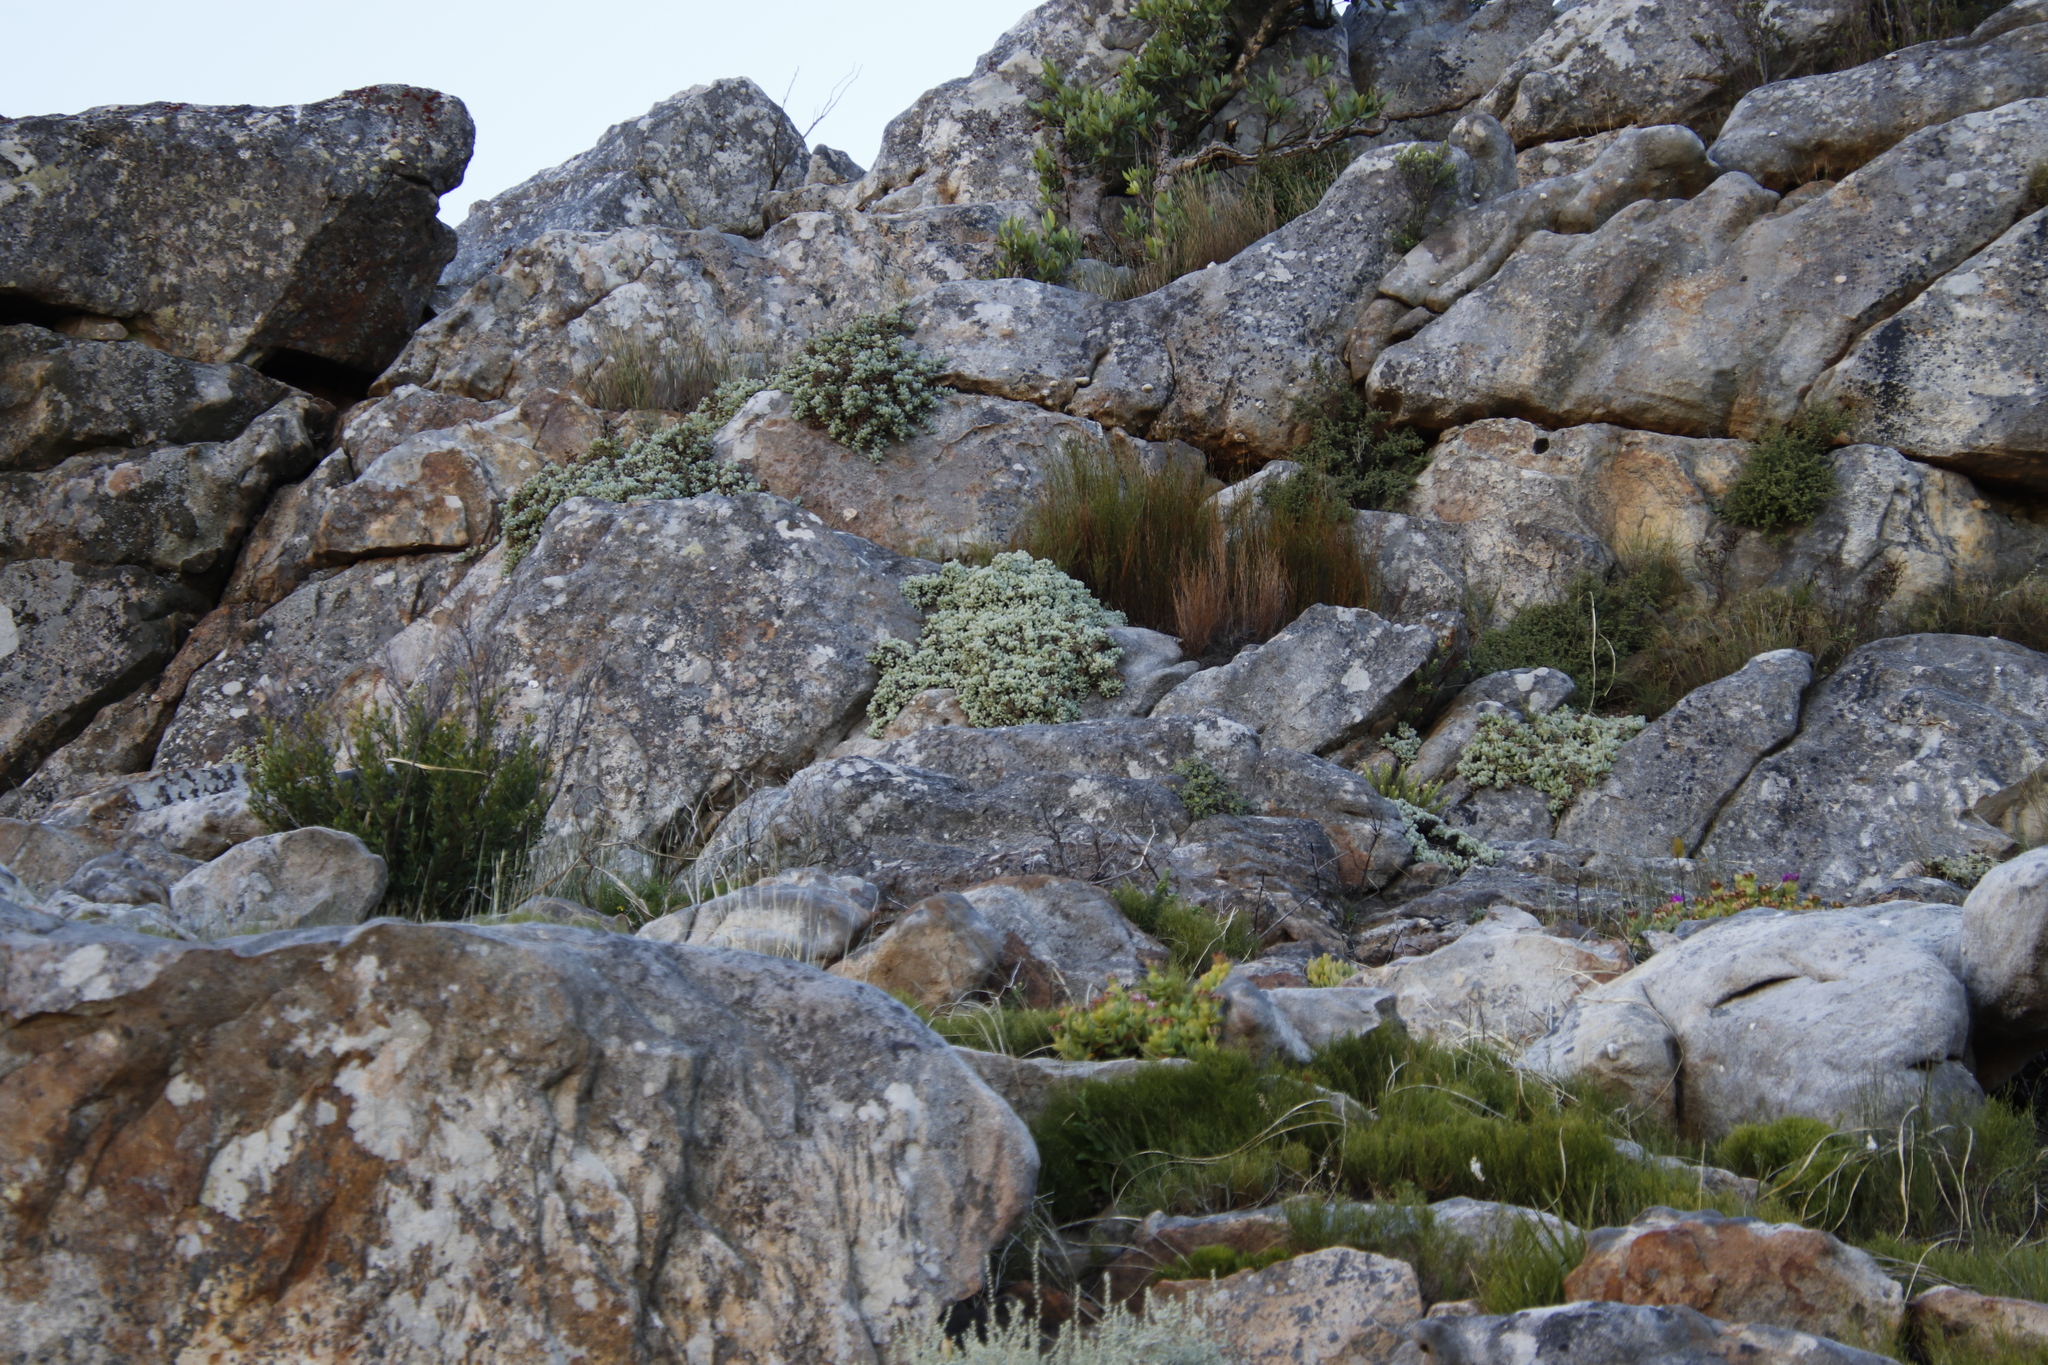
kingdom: Plantae
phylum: Tracheophyta
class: Magnoliopsida
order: Caryophyllales
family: Aizoaceae
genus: Oscularia
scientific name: Oscularia deltoides
